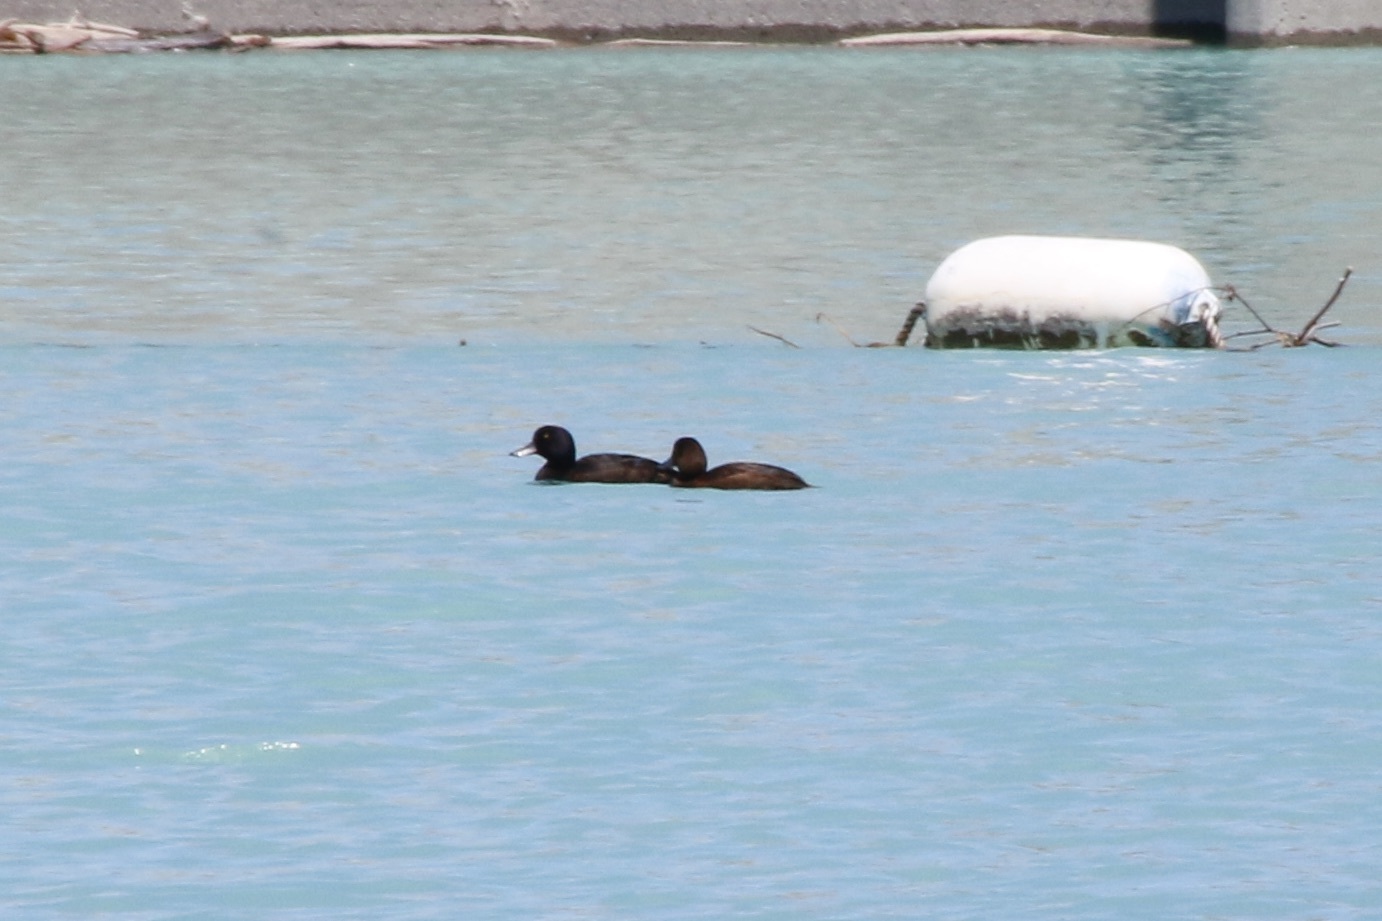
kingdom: Animalia
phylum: Chordata
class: Aves
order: Anseriformes
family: Anatidae
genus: Aythya
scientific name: Aythya novaeseelandiae
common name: New zealand scaup
